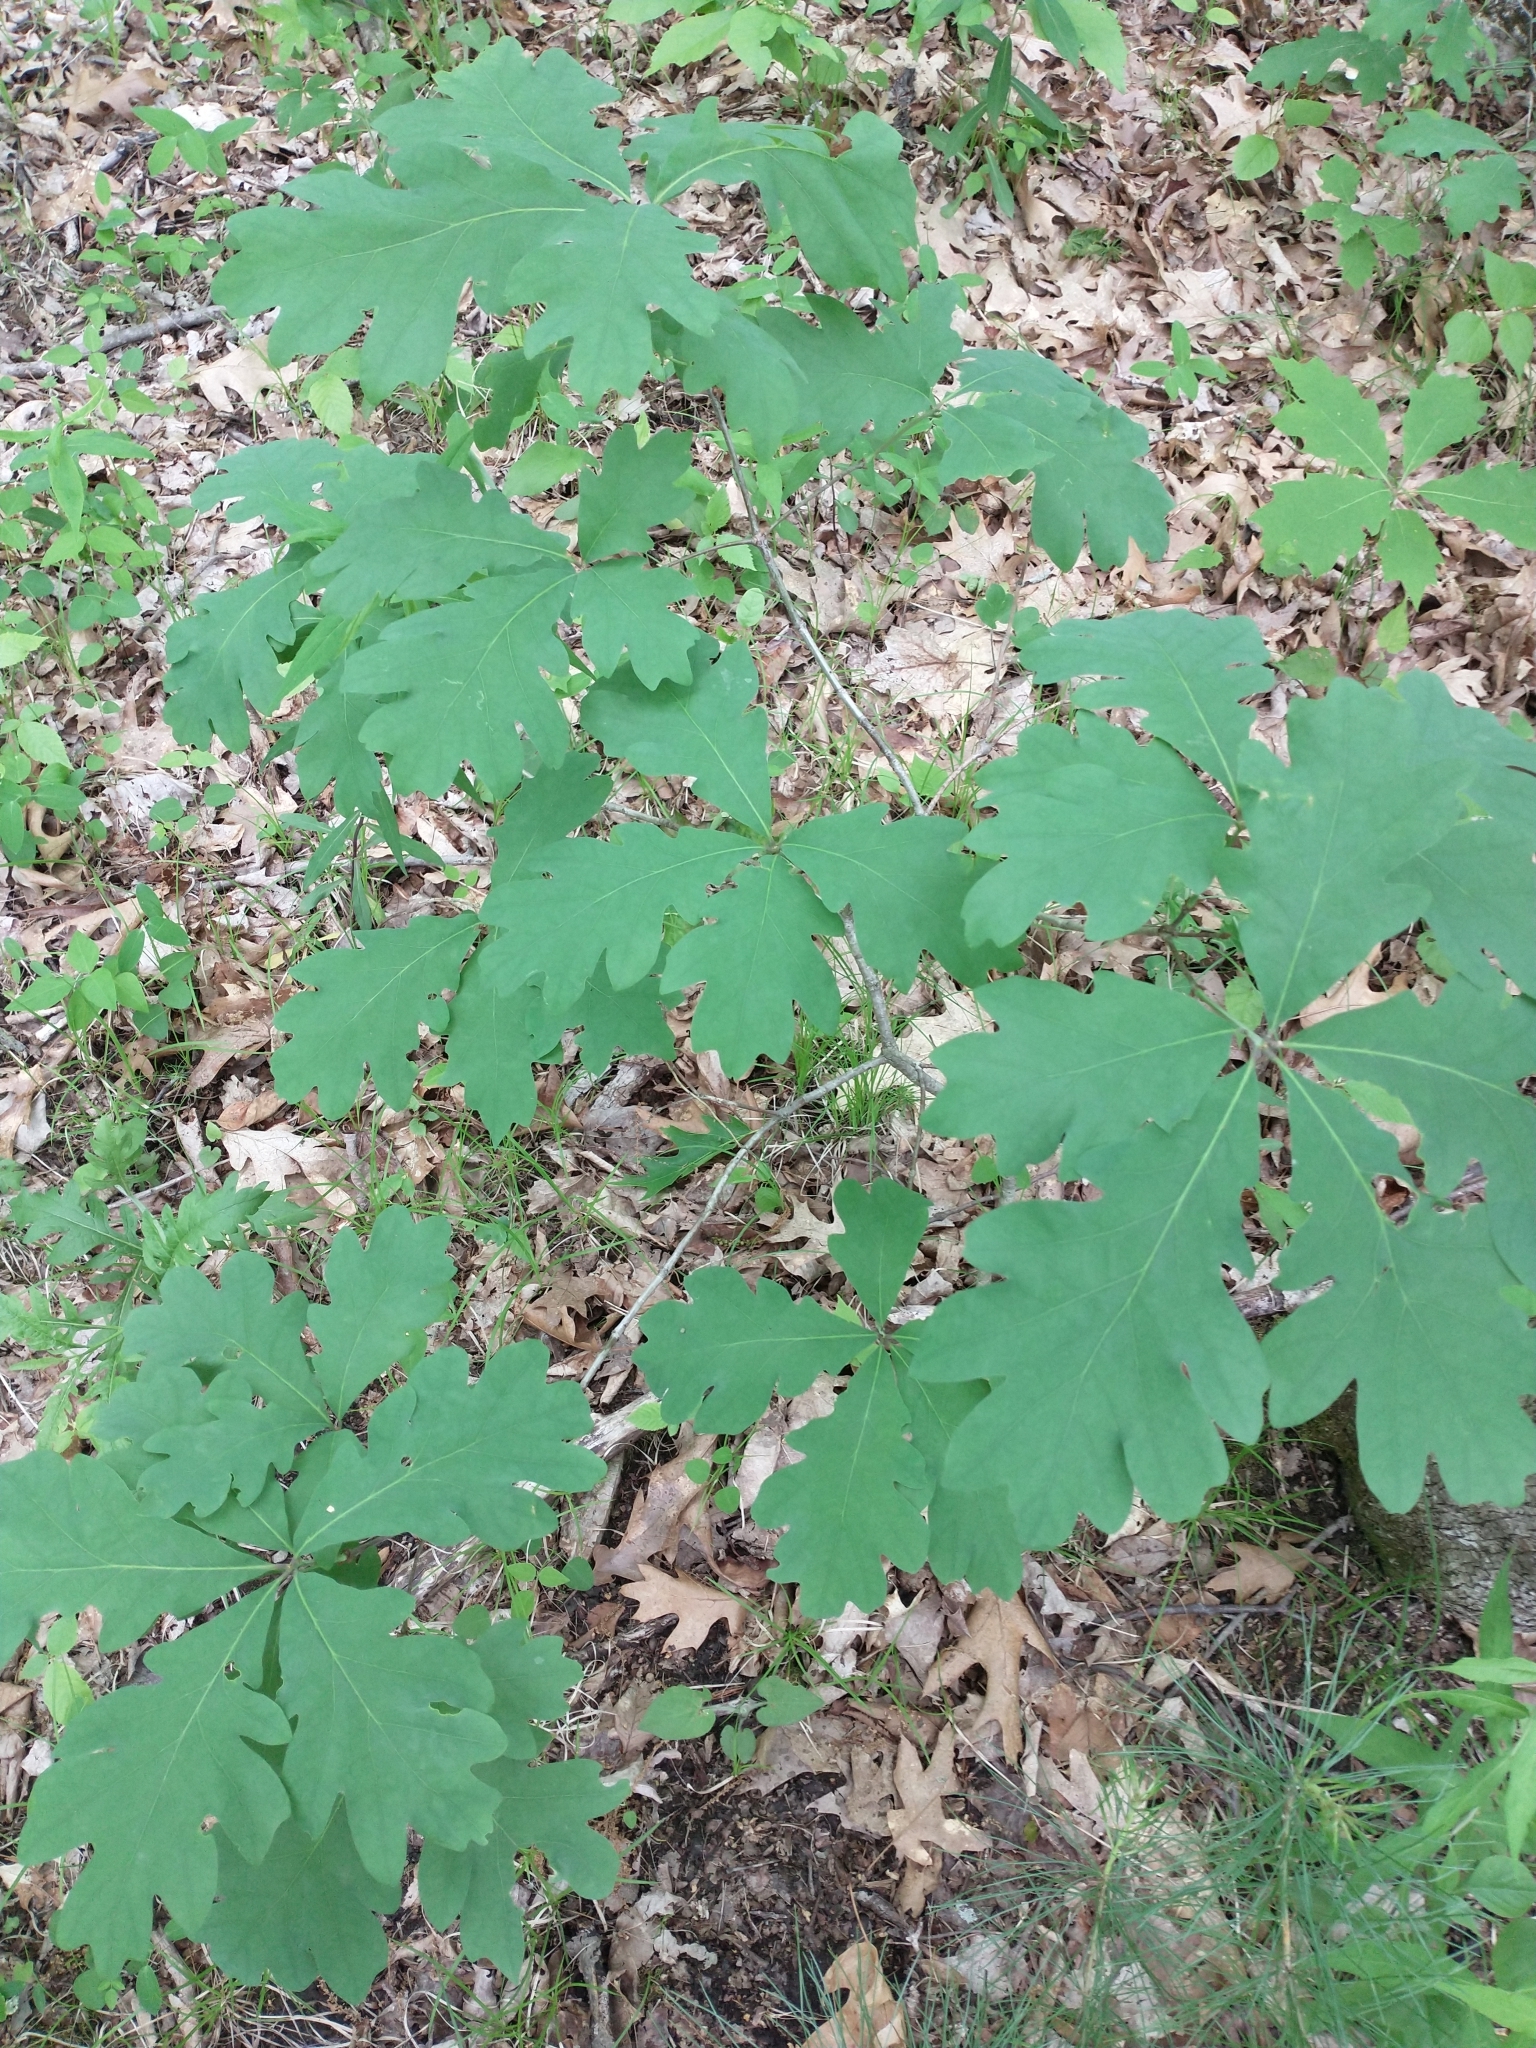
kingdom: Plantae
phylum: Tracheophyta
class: Magnoliopsida
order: Fagales
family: Fagaceae
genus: Quercus
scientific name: Quercus alba
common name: White oak
